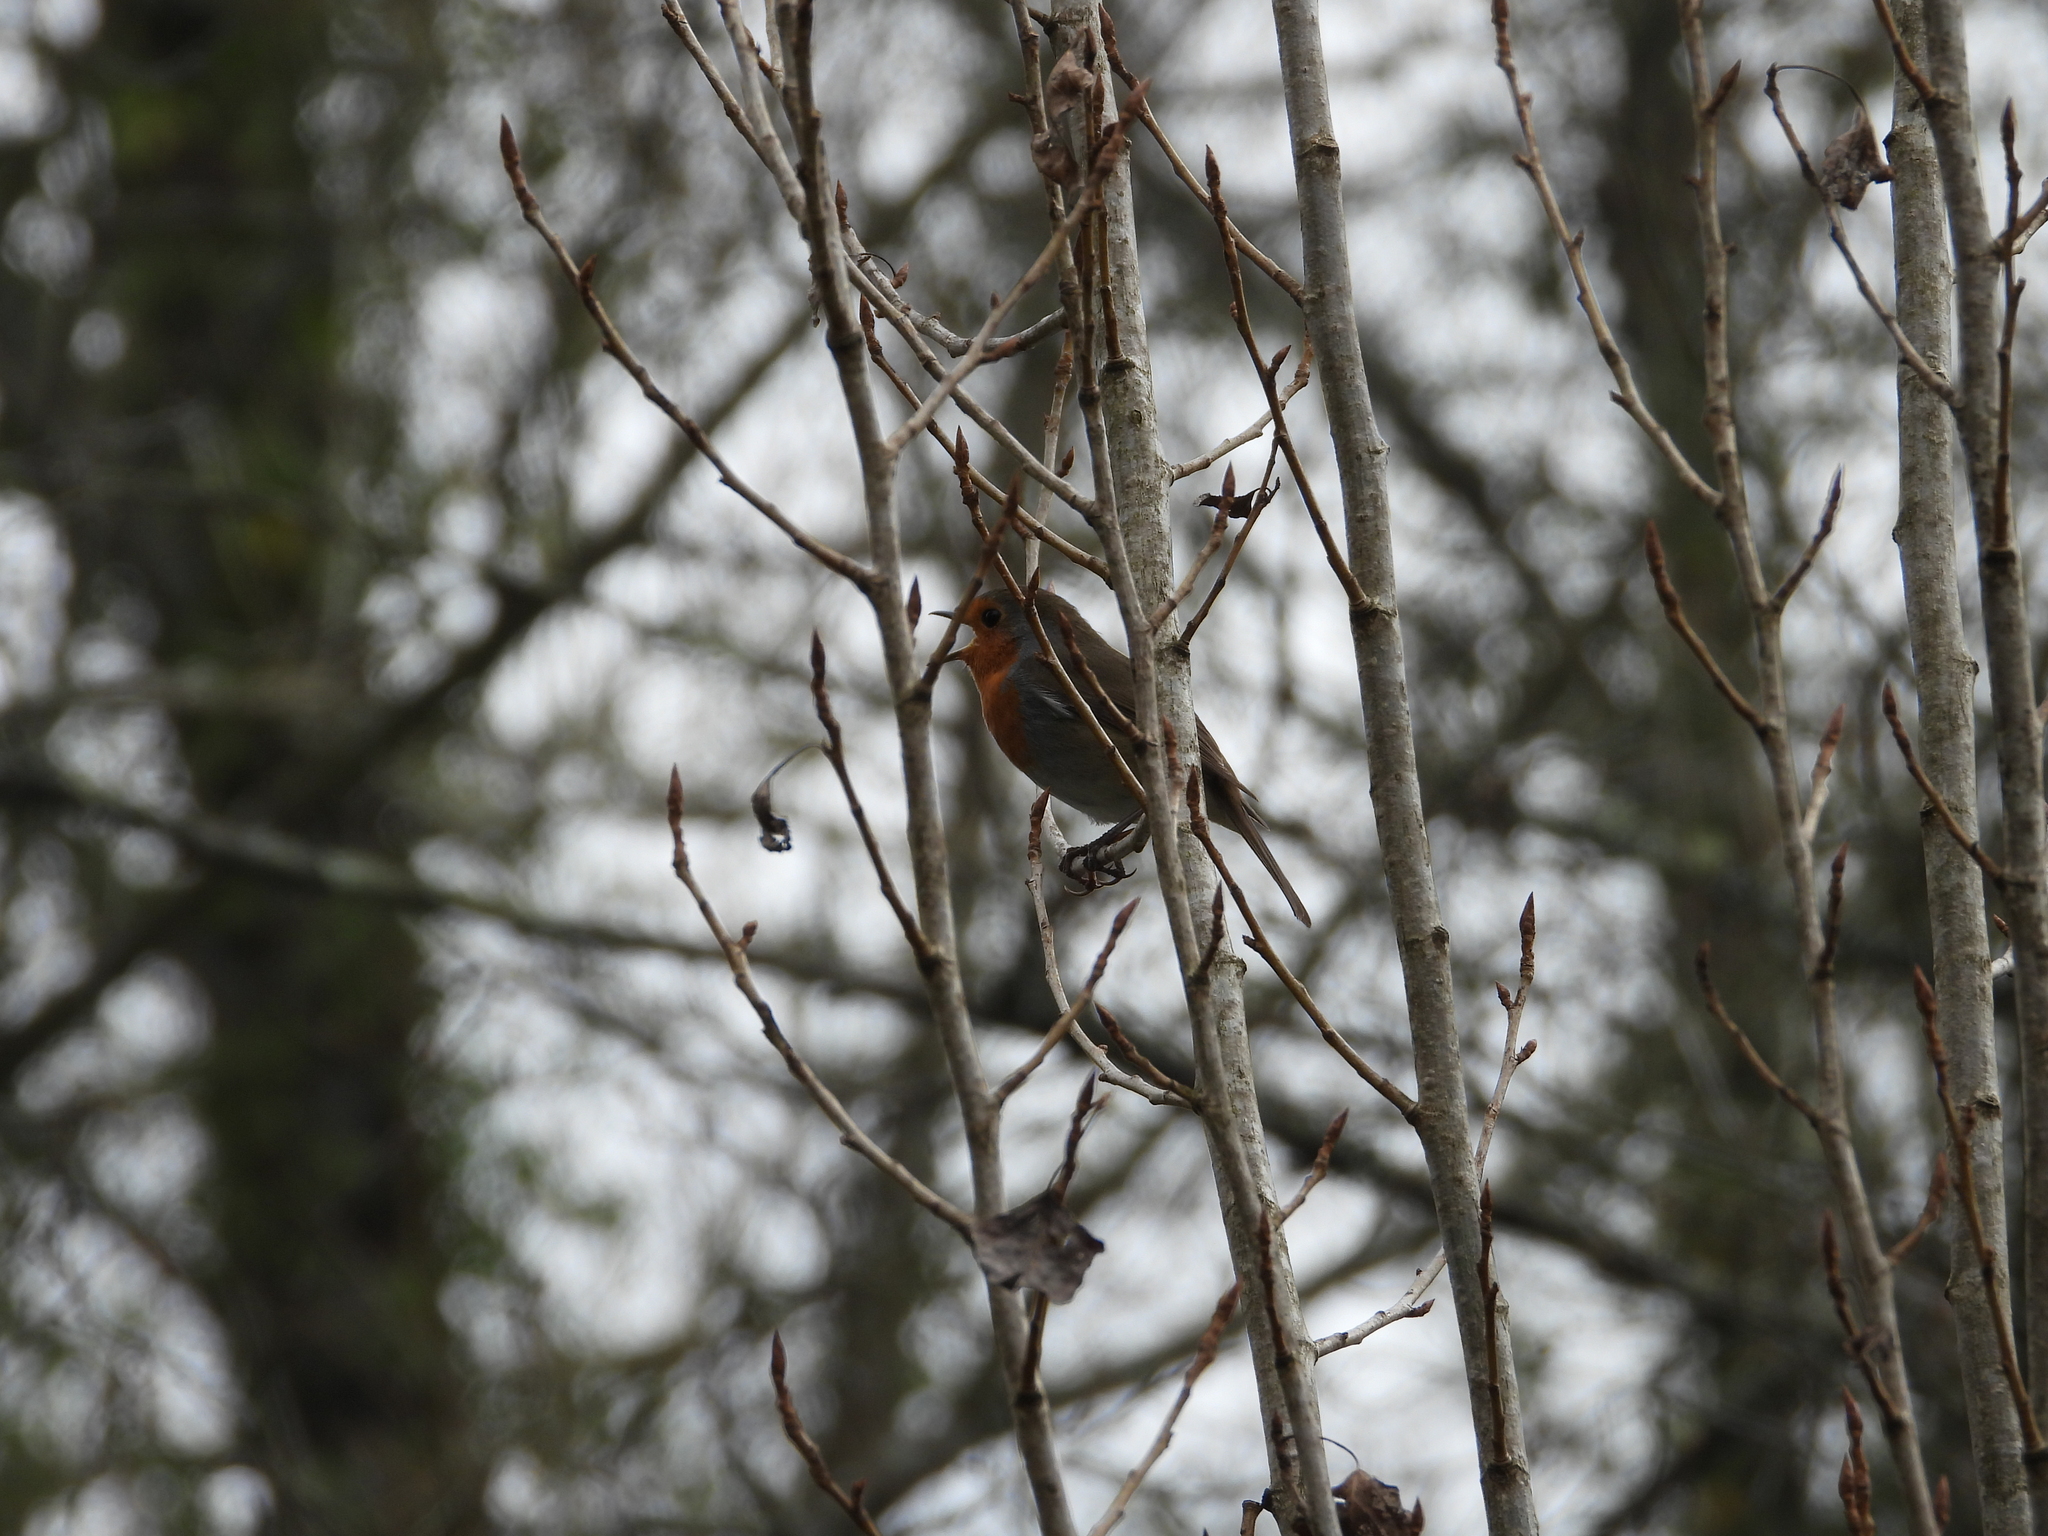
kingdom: Animalia
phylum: Chordata
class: Aves
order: Passeriformes
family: Muscicapidae
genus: Erithacus
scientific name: Erithacus rubecula
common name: European robin
